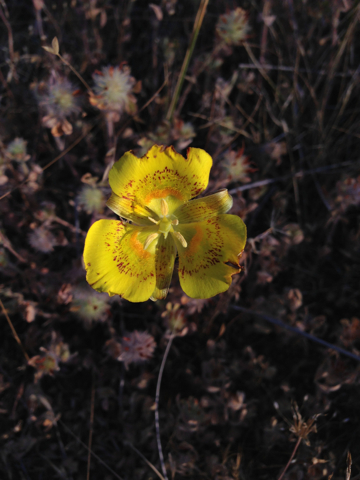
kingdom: Plantae
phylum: Tracheophyta
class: Liliopsida
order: Liliales
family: Liliaceae
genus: Calochortus
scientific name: Calochortus luteus
